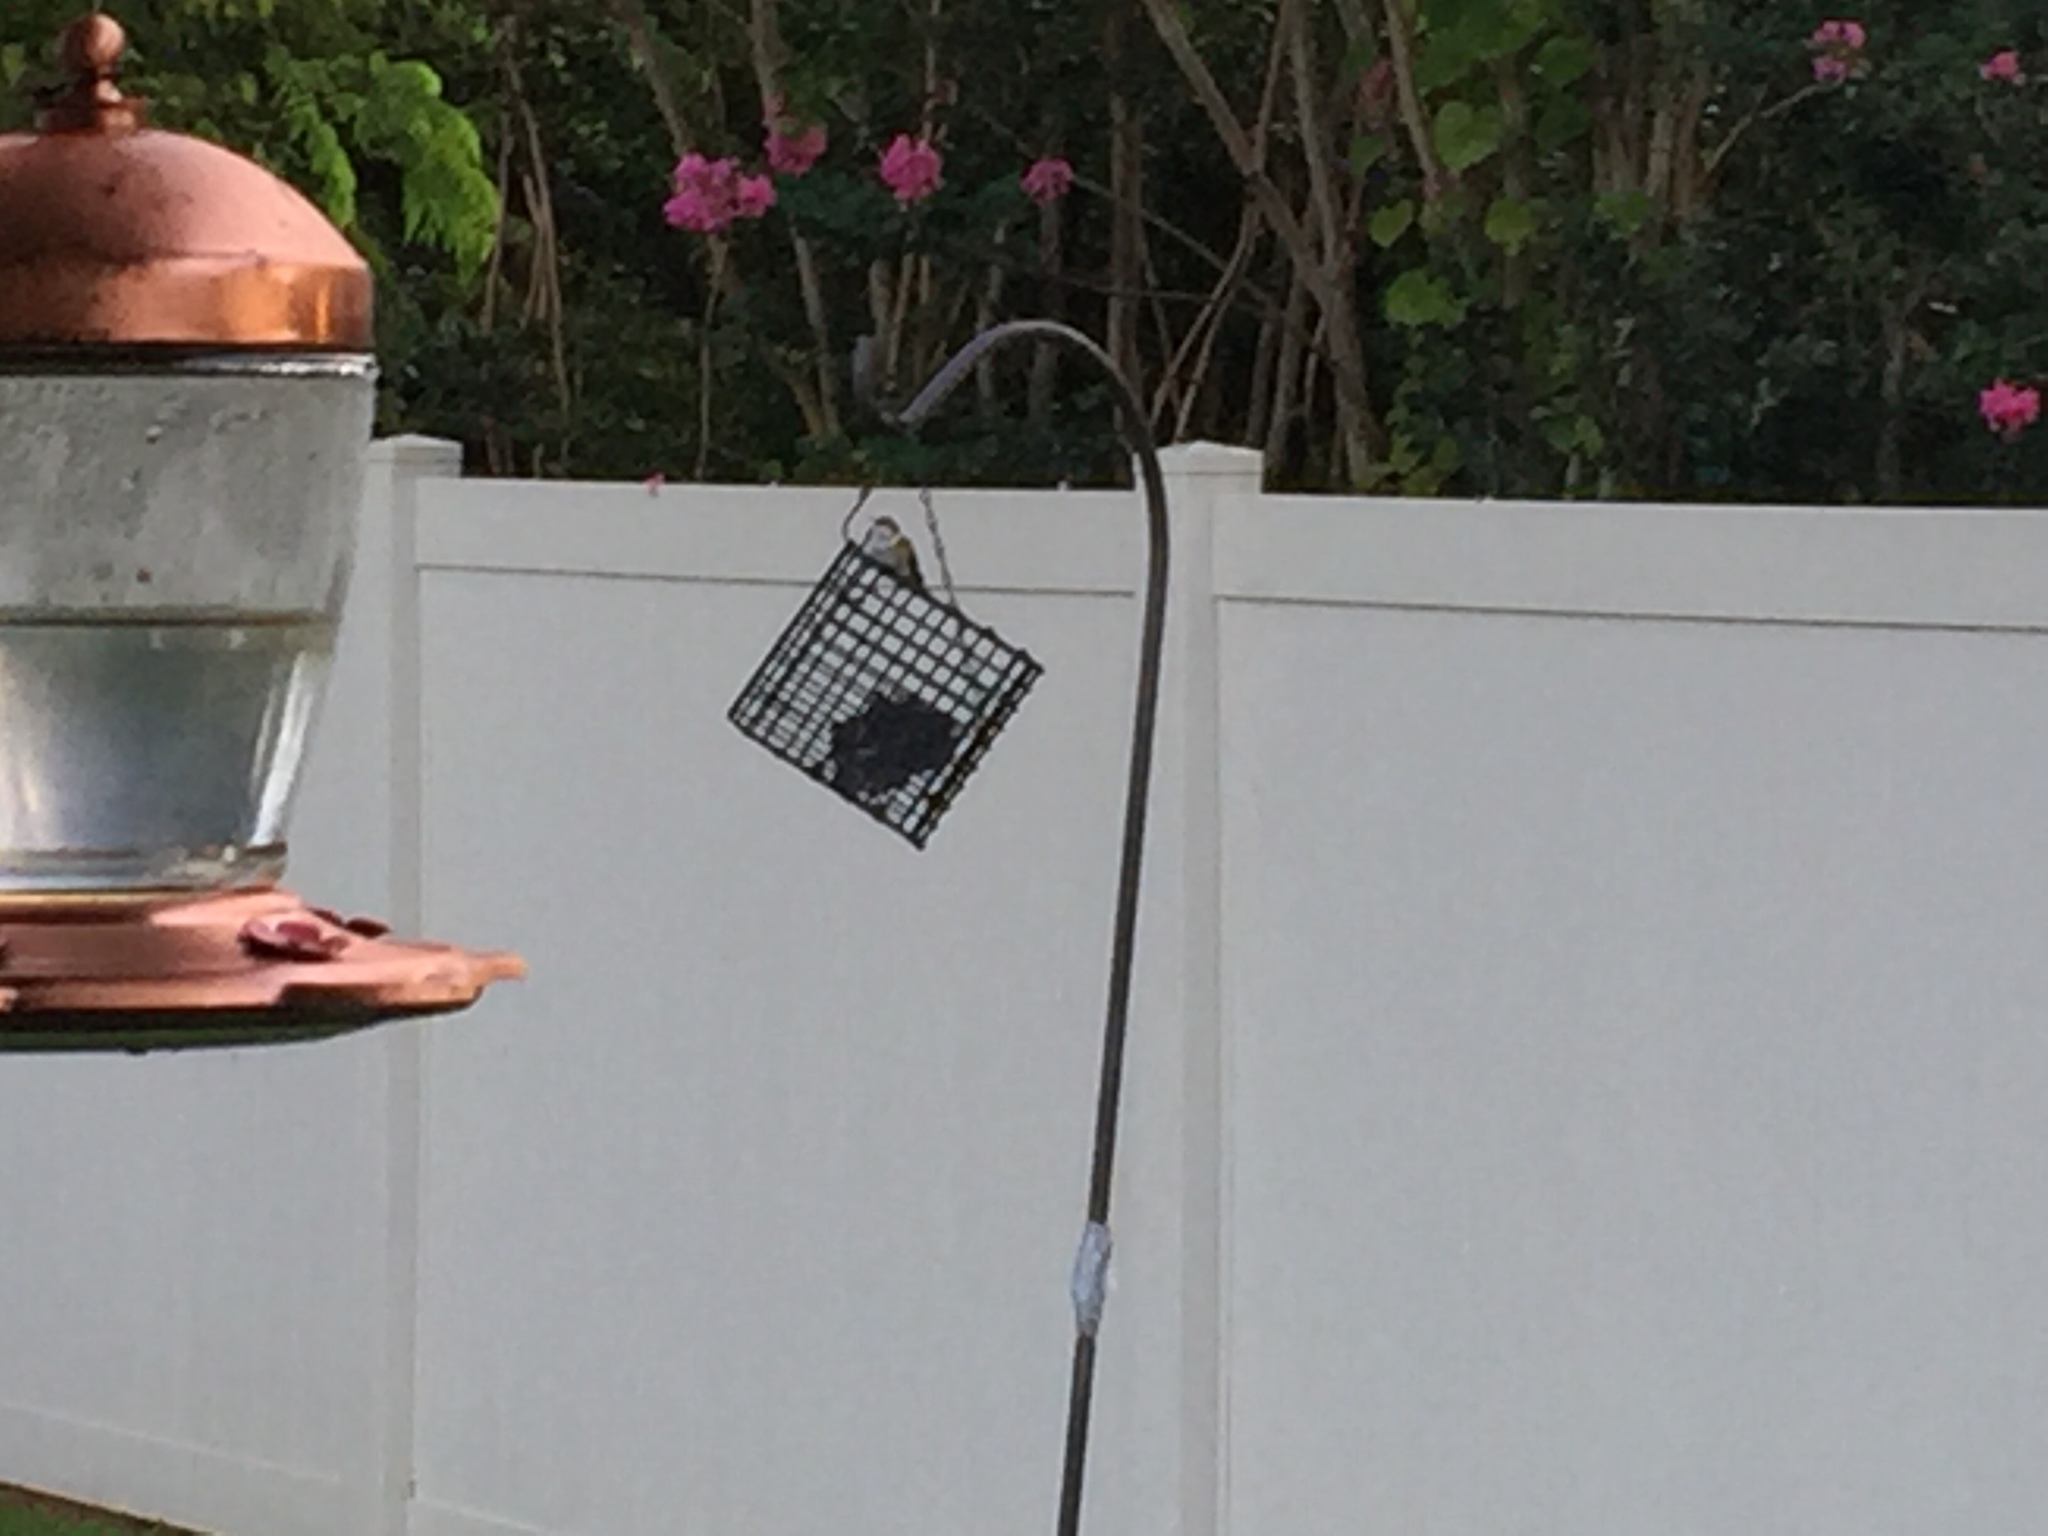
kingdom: Animalia
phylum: Chordata
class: Aves
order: Apodiformes
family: Trochilidae
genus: Archilochus
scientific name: Archilochus colubris
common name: Ruby-throated hummingbird
